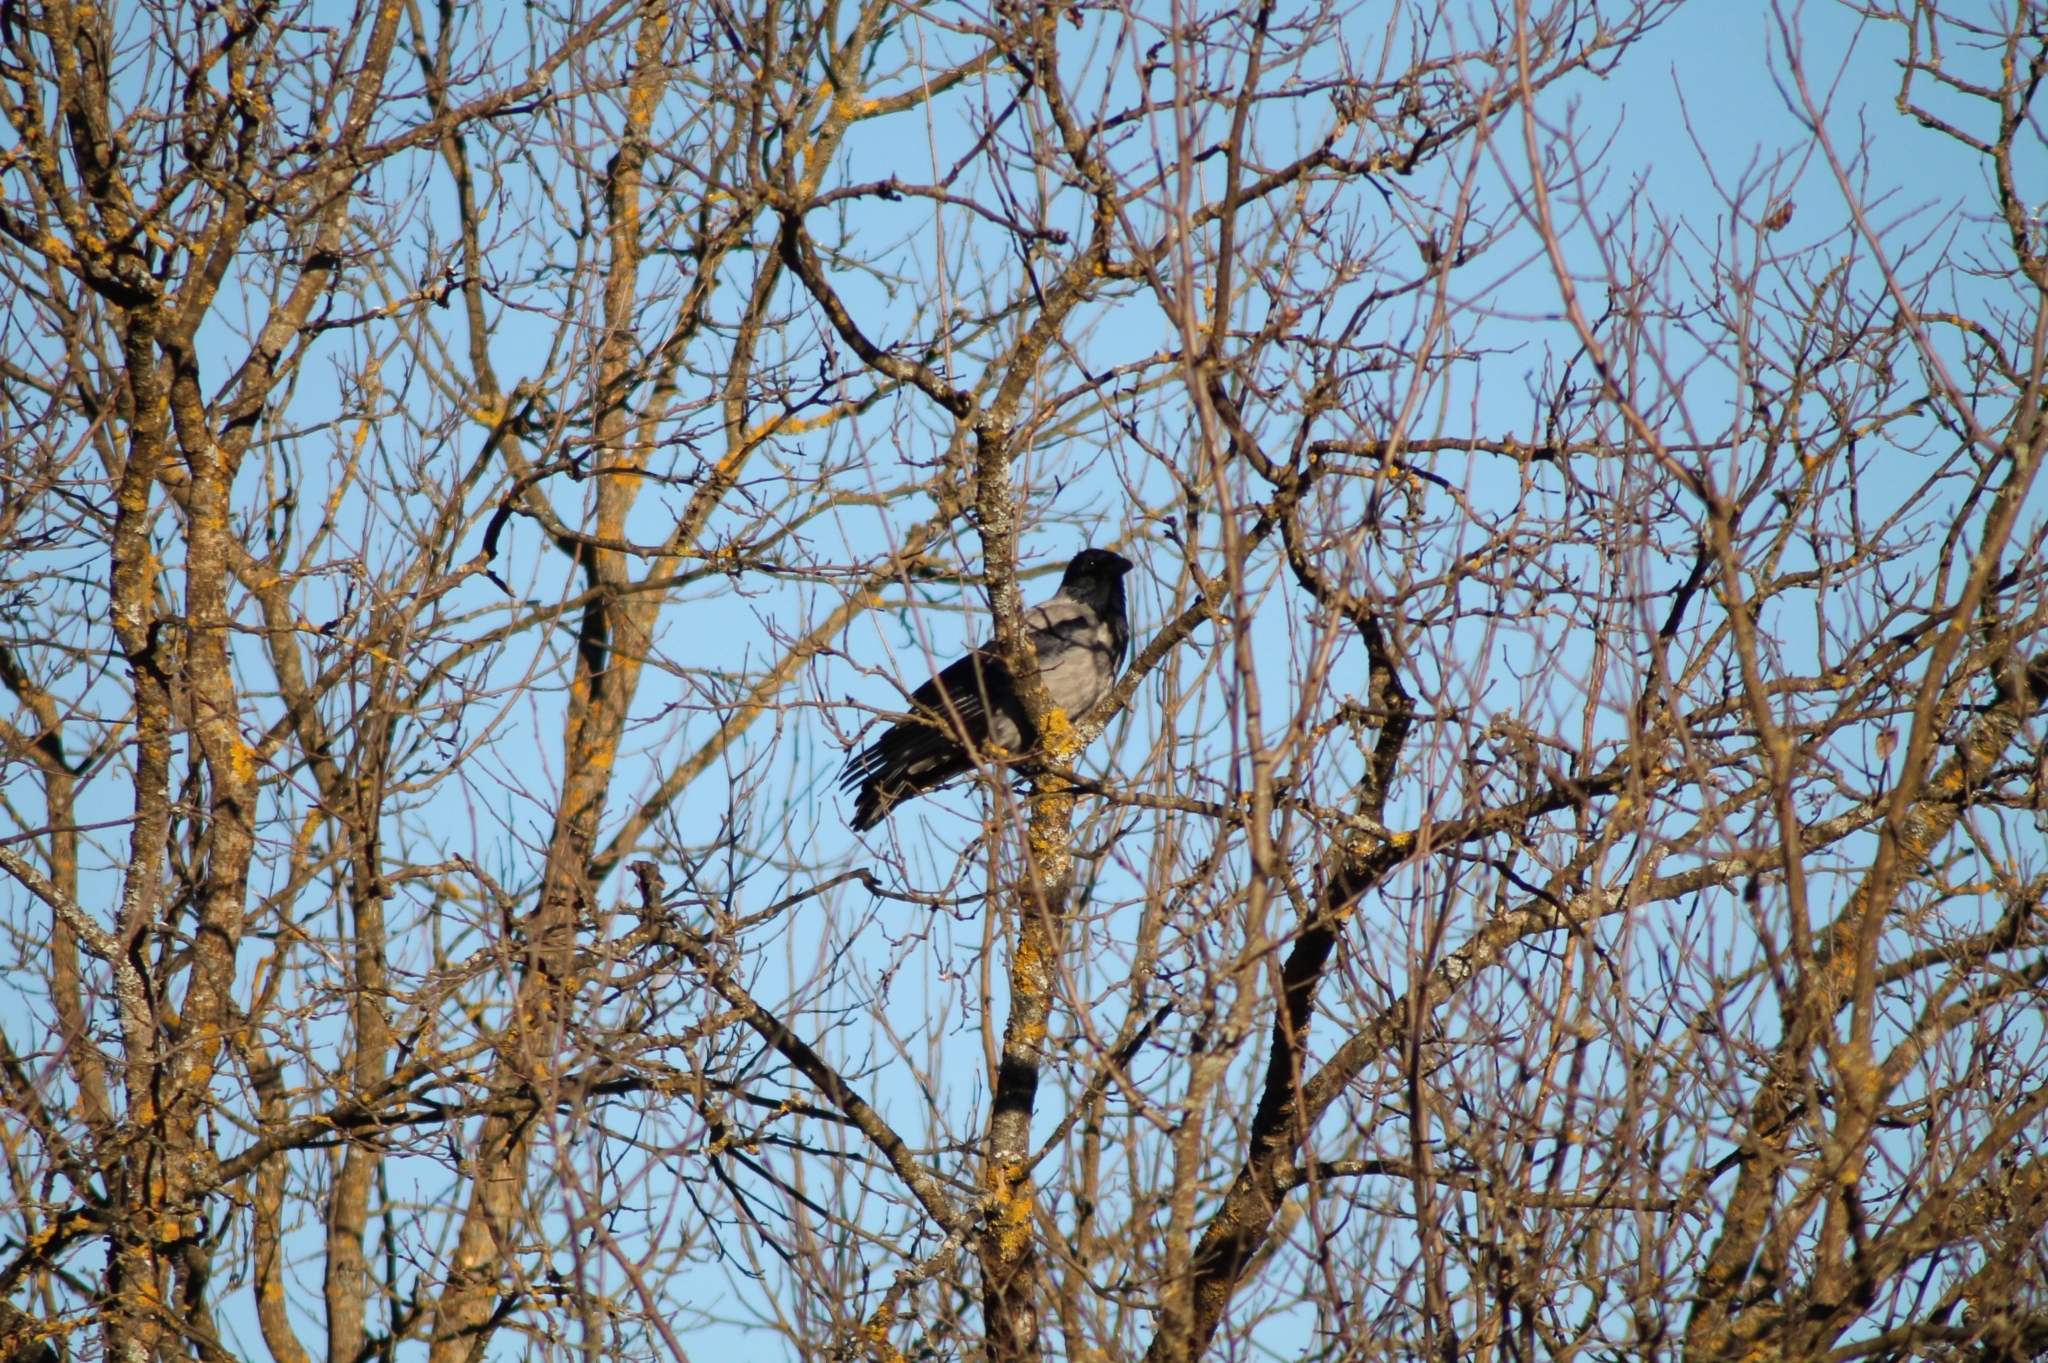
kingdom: Animalia
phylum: Chordata
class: Aves
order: Passeriformes
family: Corvidae
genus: Corvus
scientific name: Corvus cornix
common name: Hooded crow
